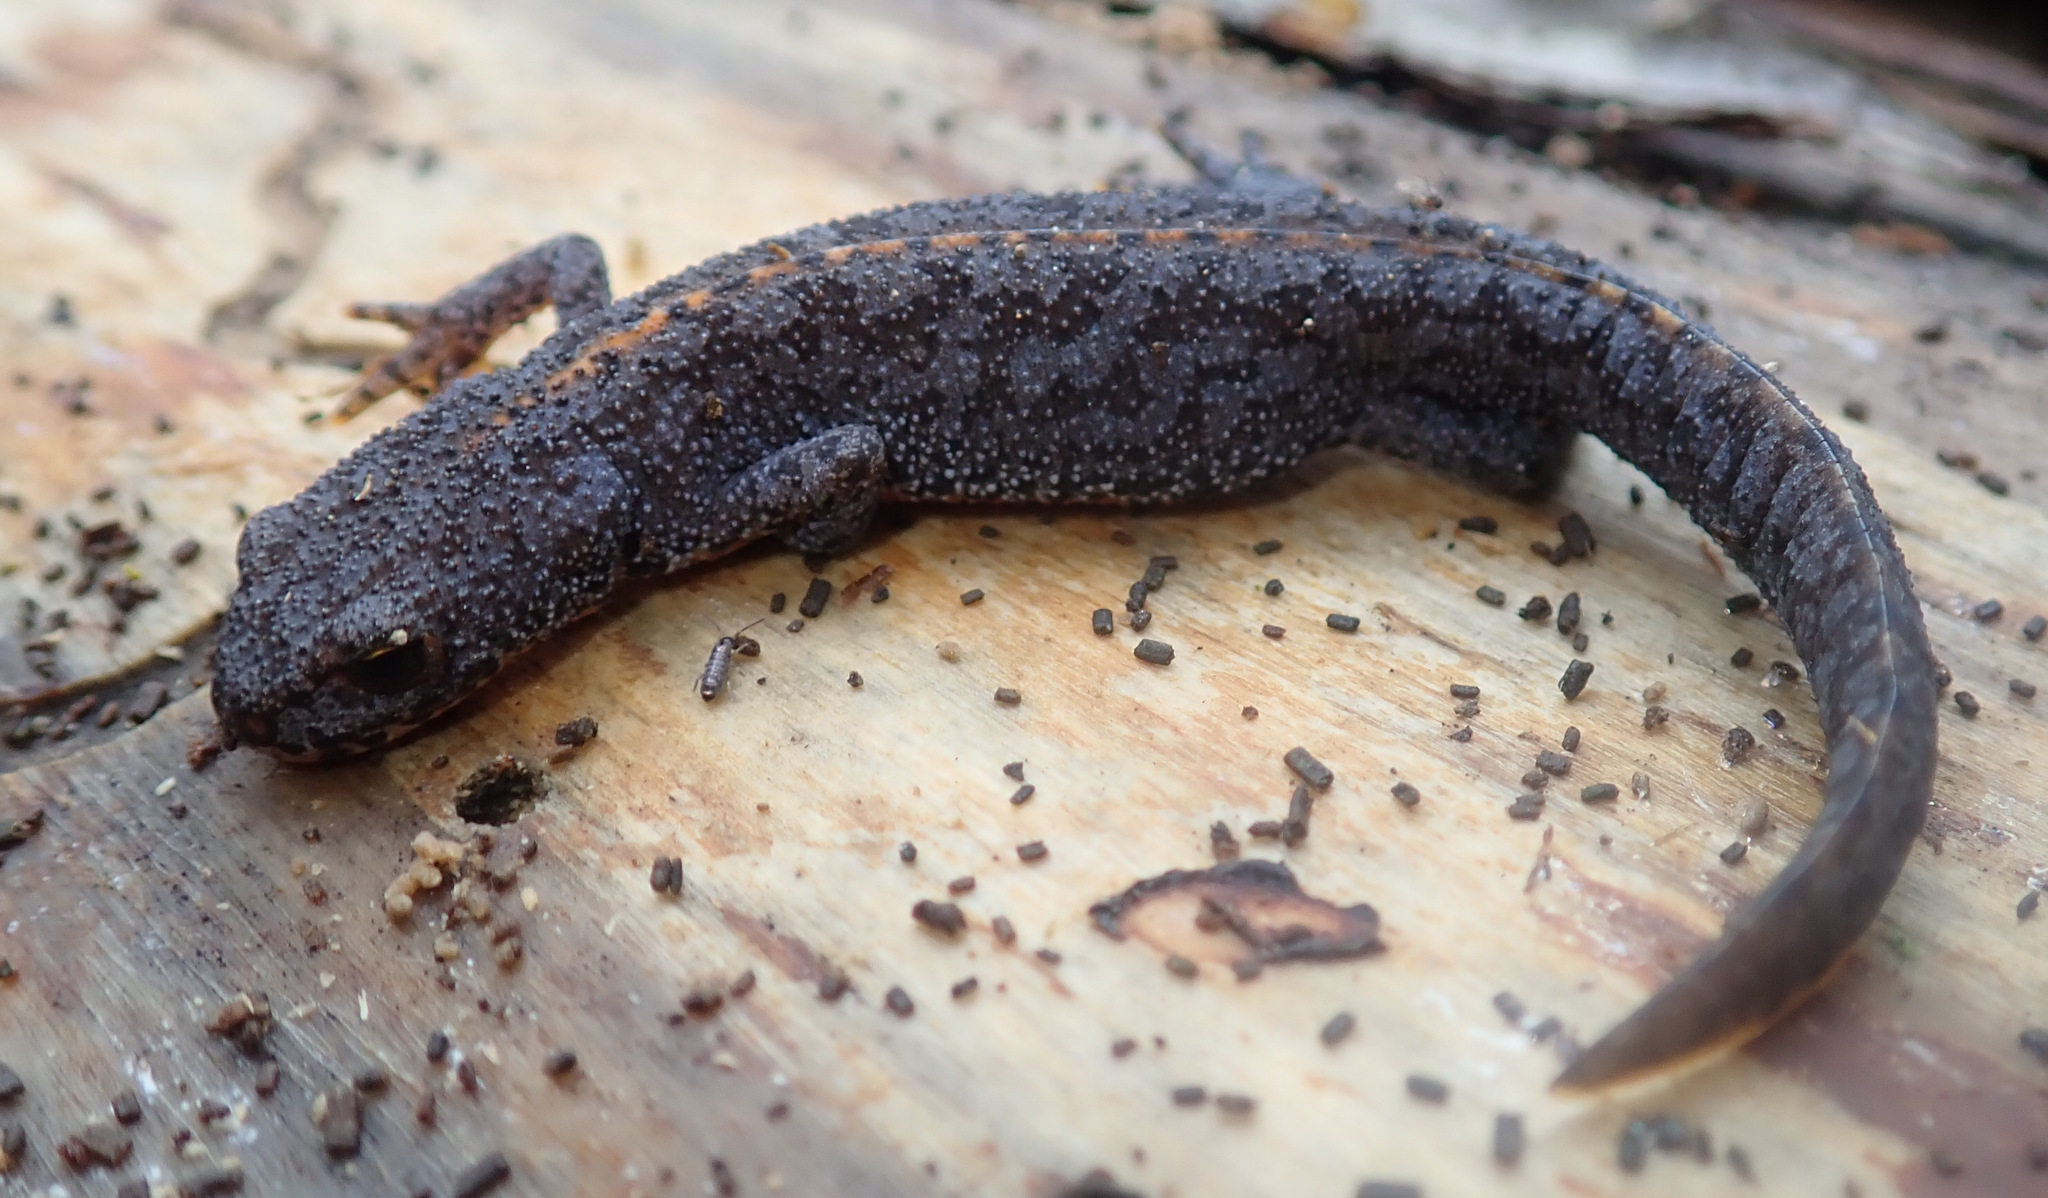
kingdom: Animalia
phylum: Chordata
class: Amphibia
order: Caudata
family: Salamandridae
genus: Ichthyosaura
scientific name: Ichthyosaura alpestris
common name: Alpine newt
